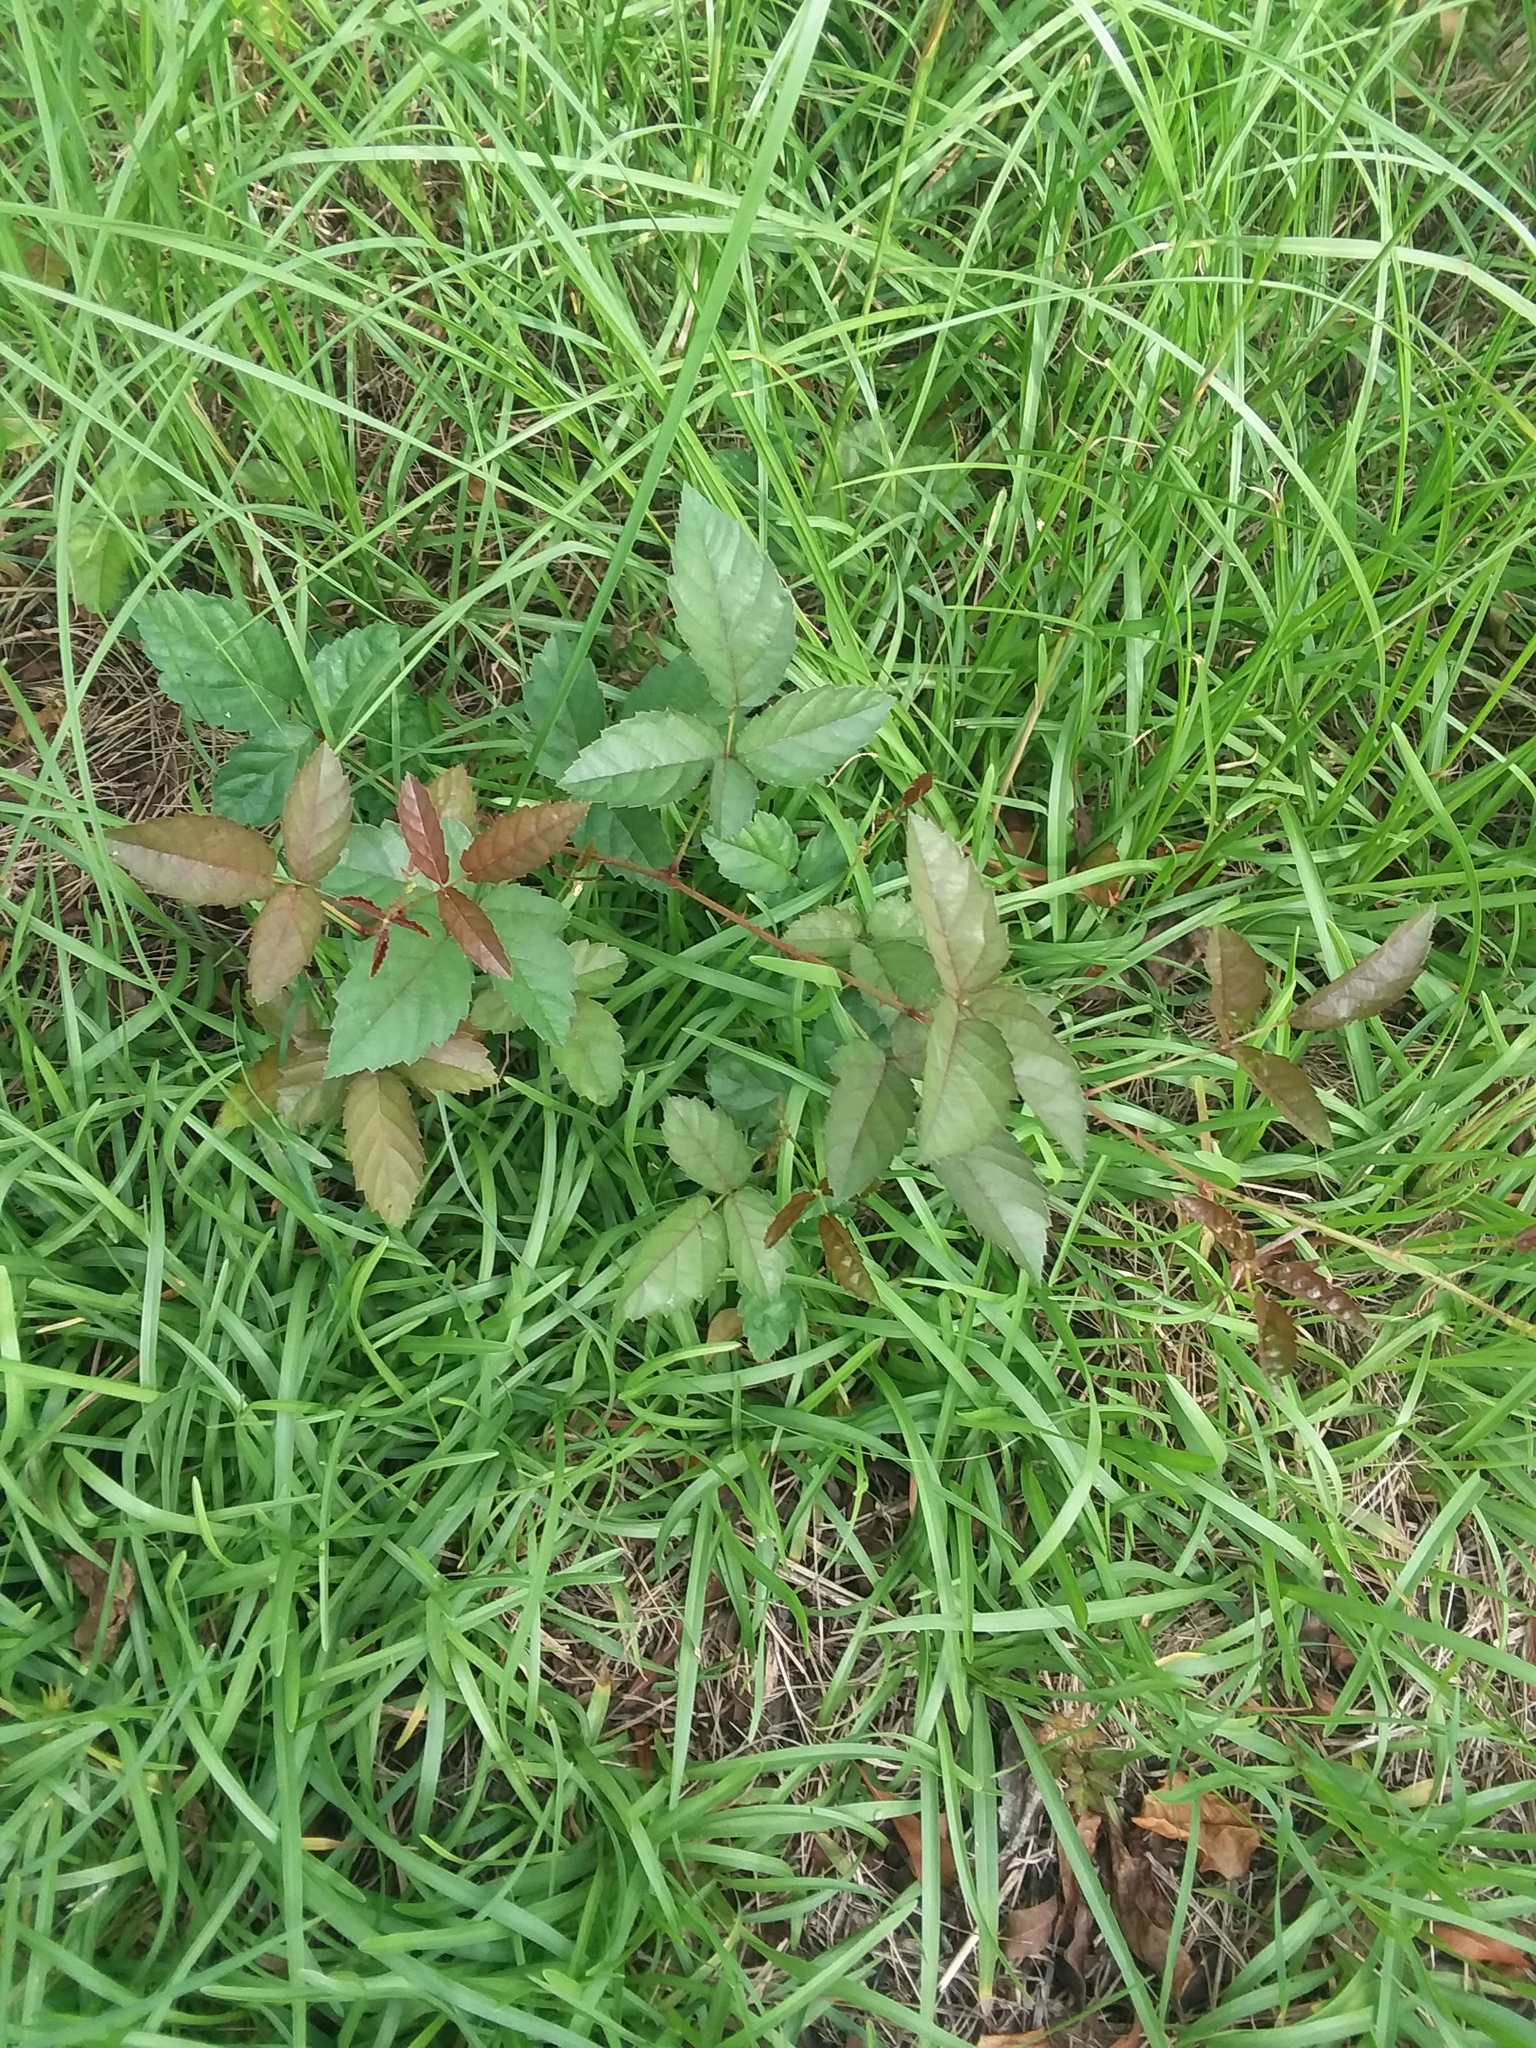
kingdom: Plantae
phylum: Tracheophyta
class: Magnoliopsida
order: Rosales
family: Rosaceae
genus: Rubus
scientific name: Rubus trivialis
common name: Southern dewberry
